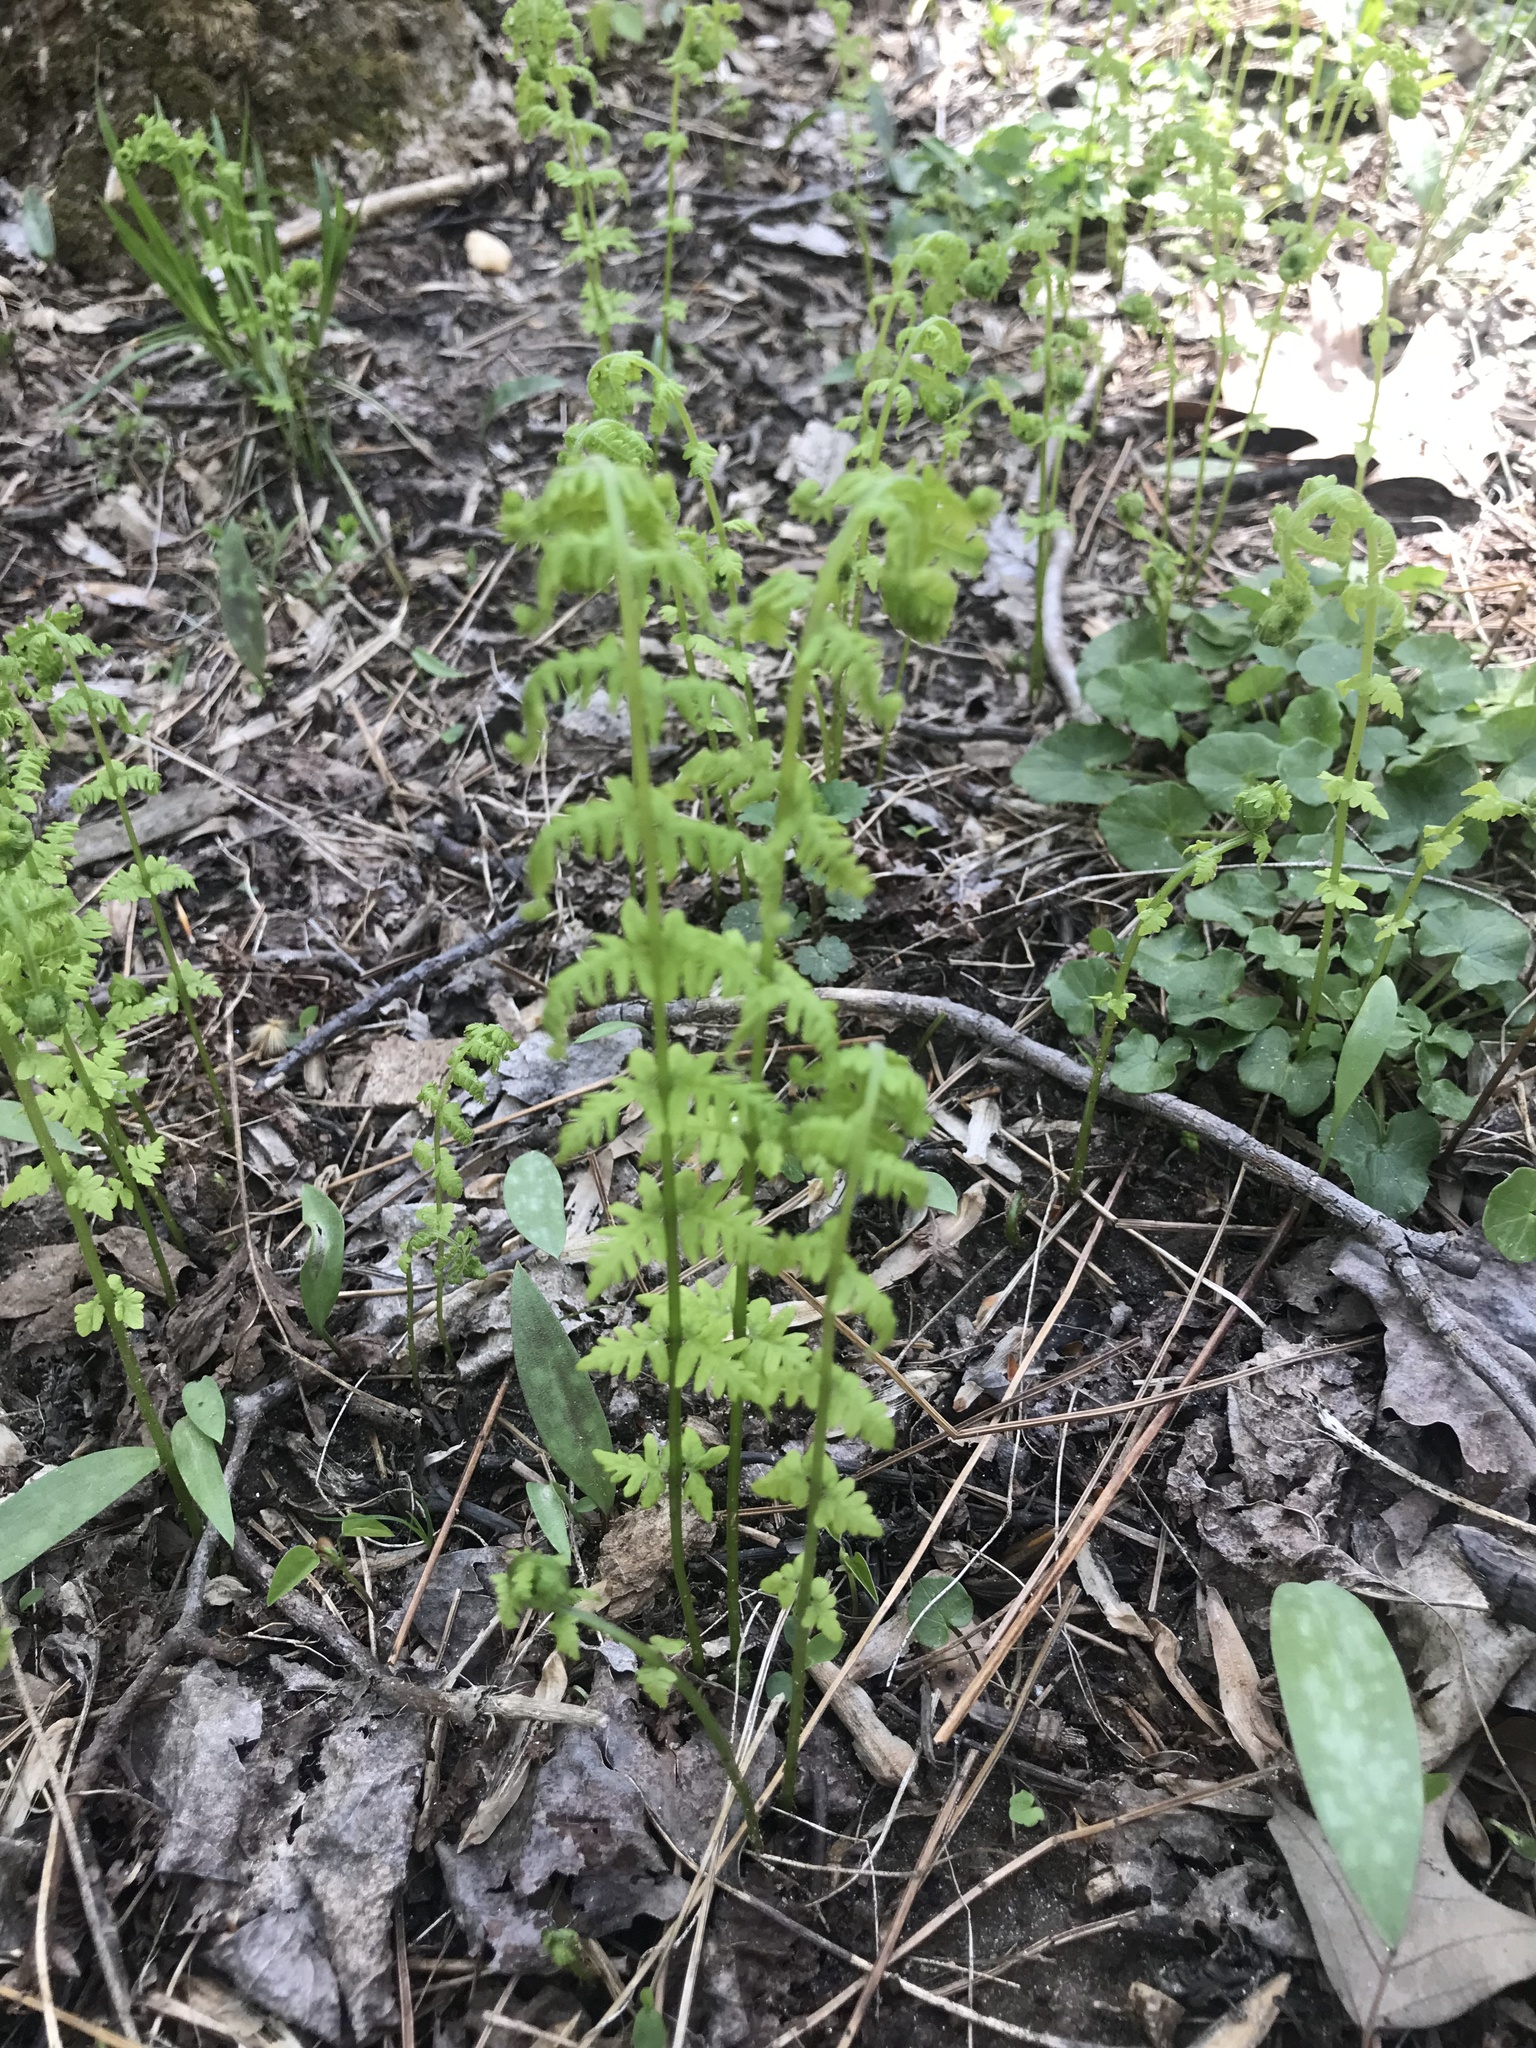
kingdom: Plantae
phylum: Tracheophyta
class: Polypodiopsida
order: Polypodiales
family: Thelypteridaceae
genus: Amauropelta
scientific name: Amauropelta noveboracensis
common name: New york fern
